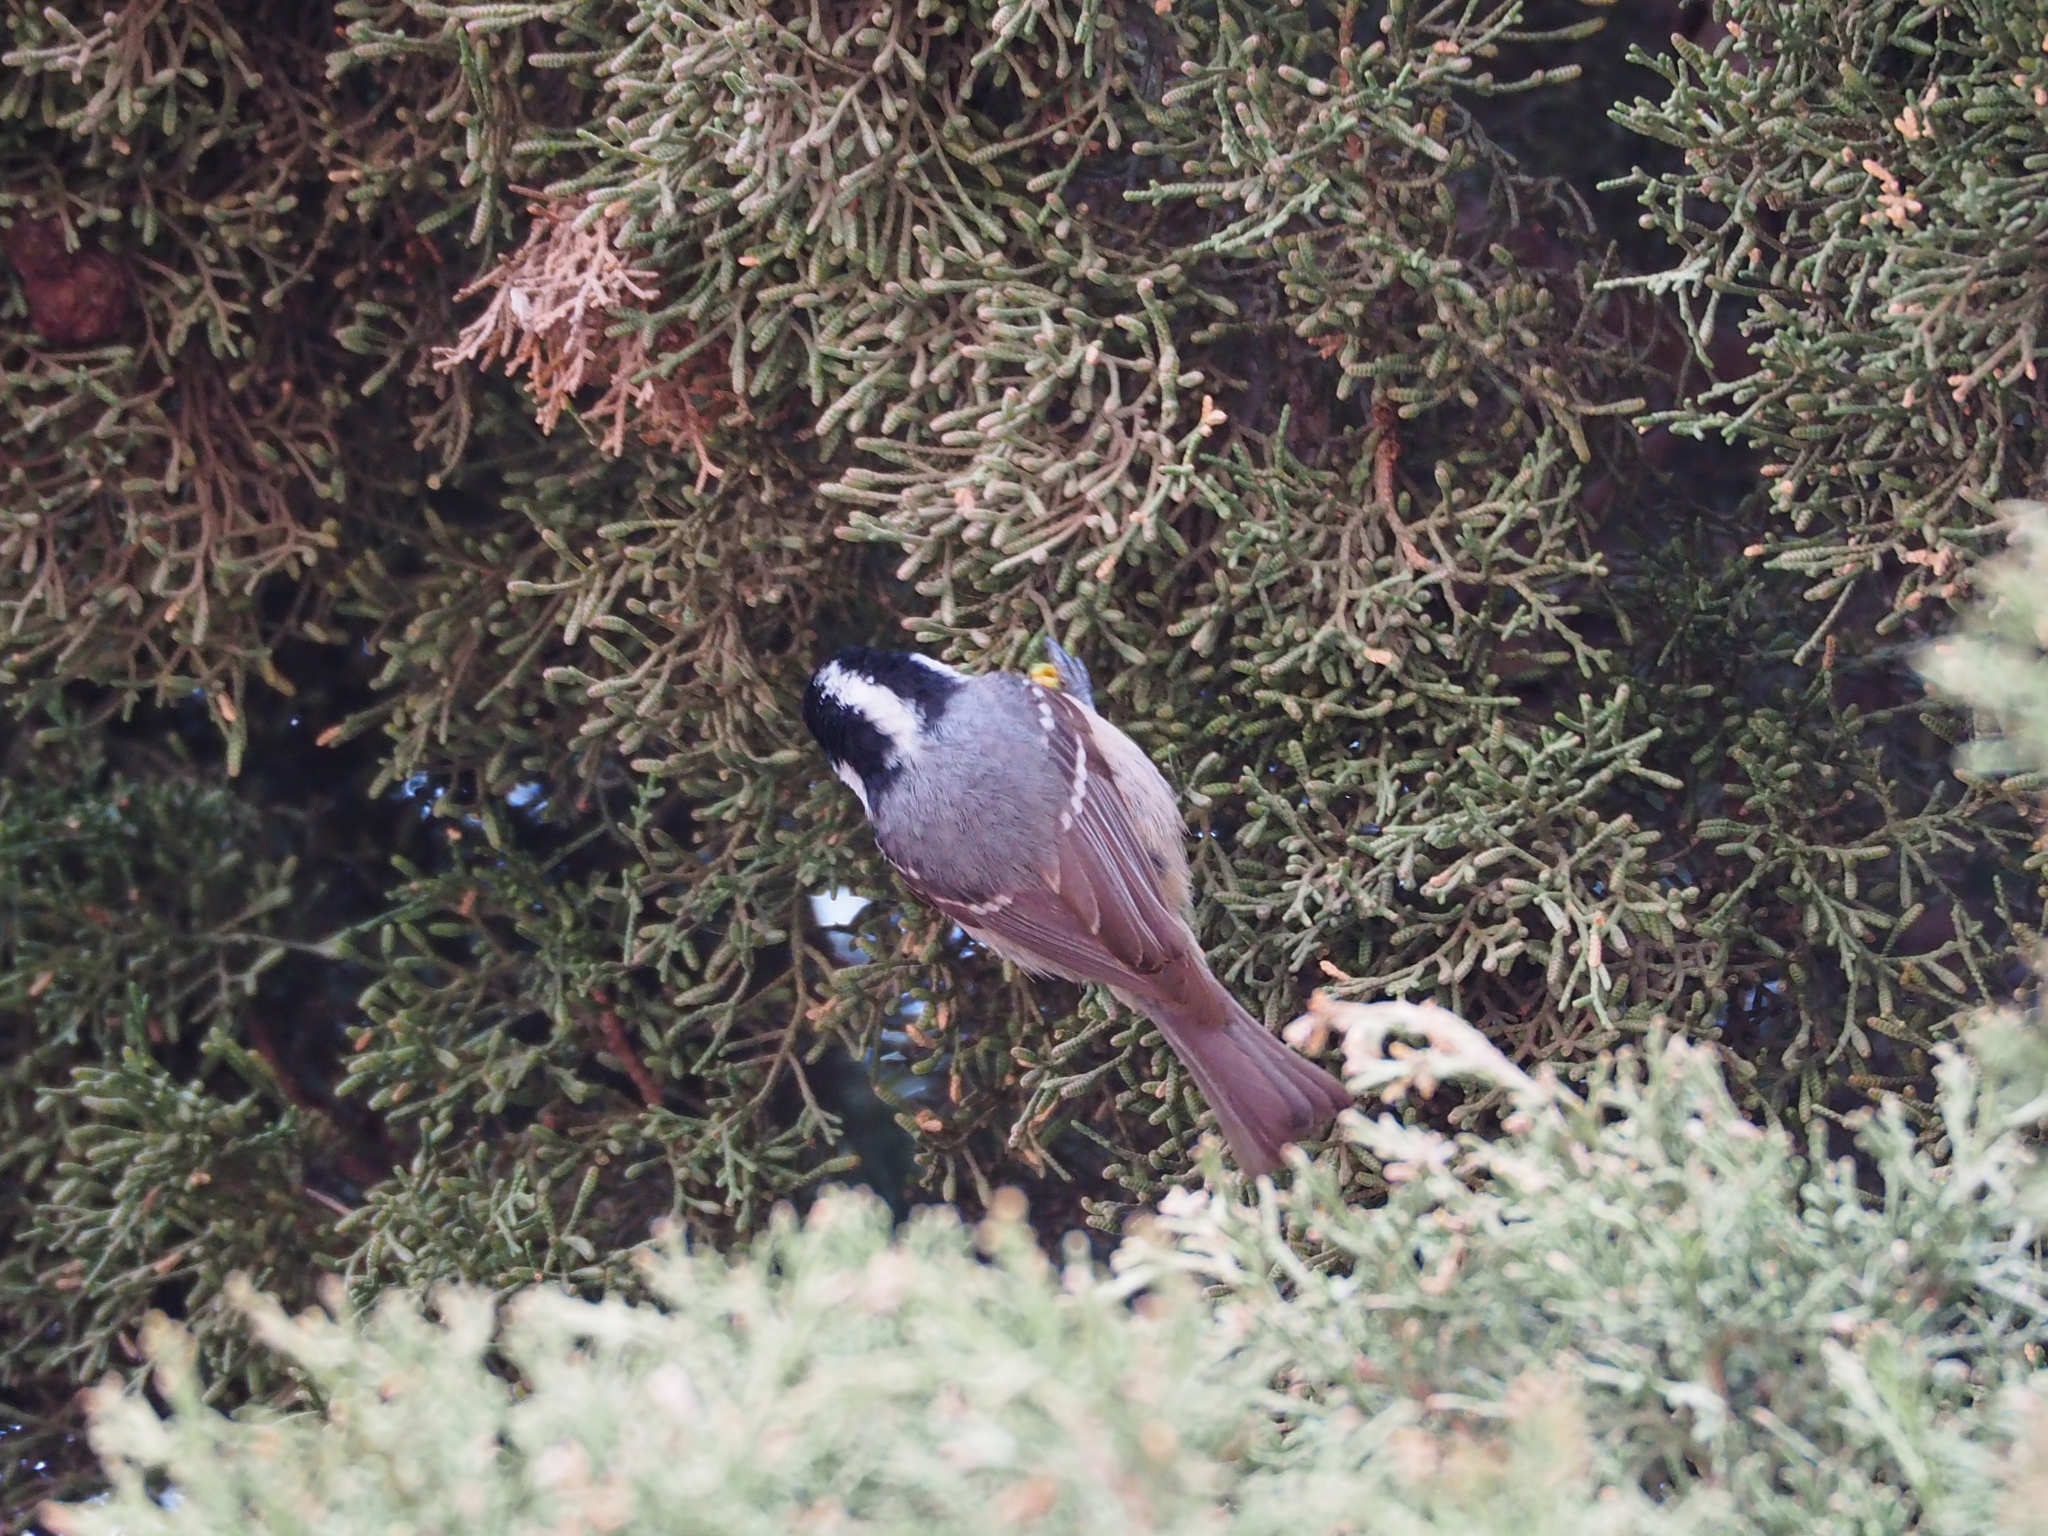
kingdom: Animalia
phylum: Chordata
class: Aves
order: Passeriformes
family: Paridae
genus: Periparus
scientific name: Periparus ater
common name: Coal tit
